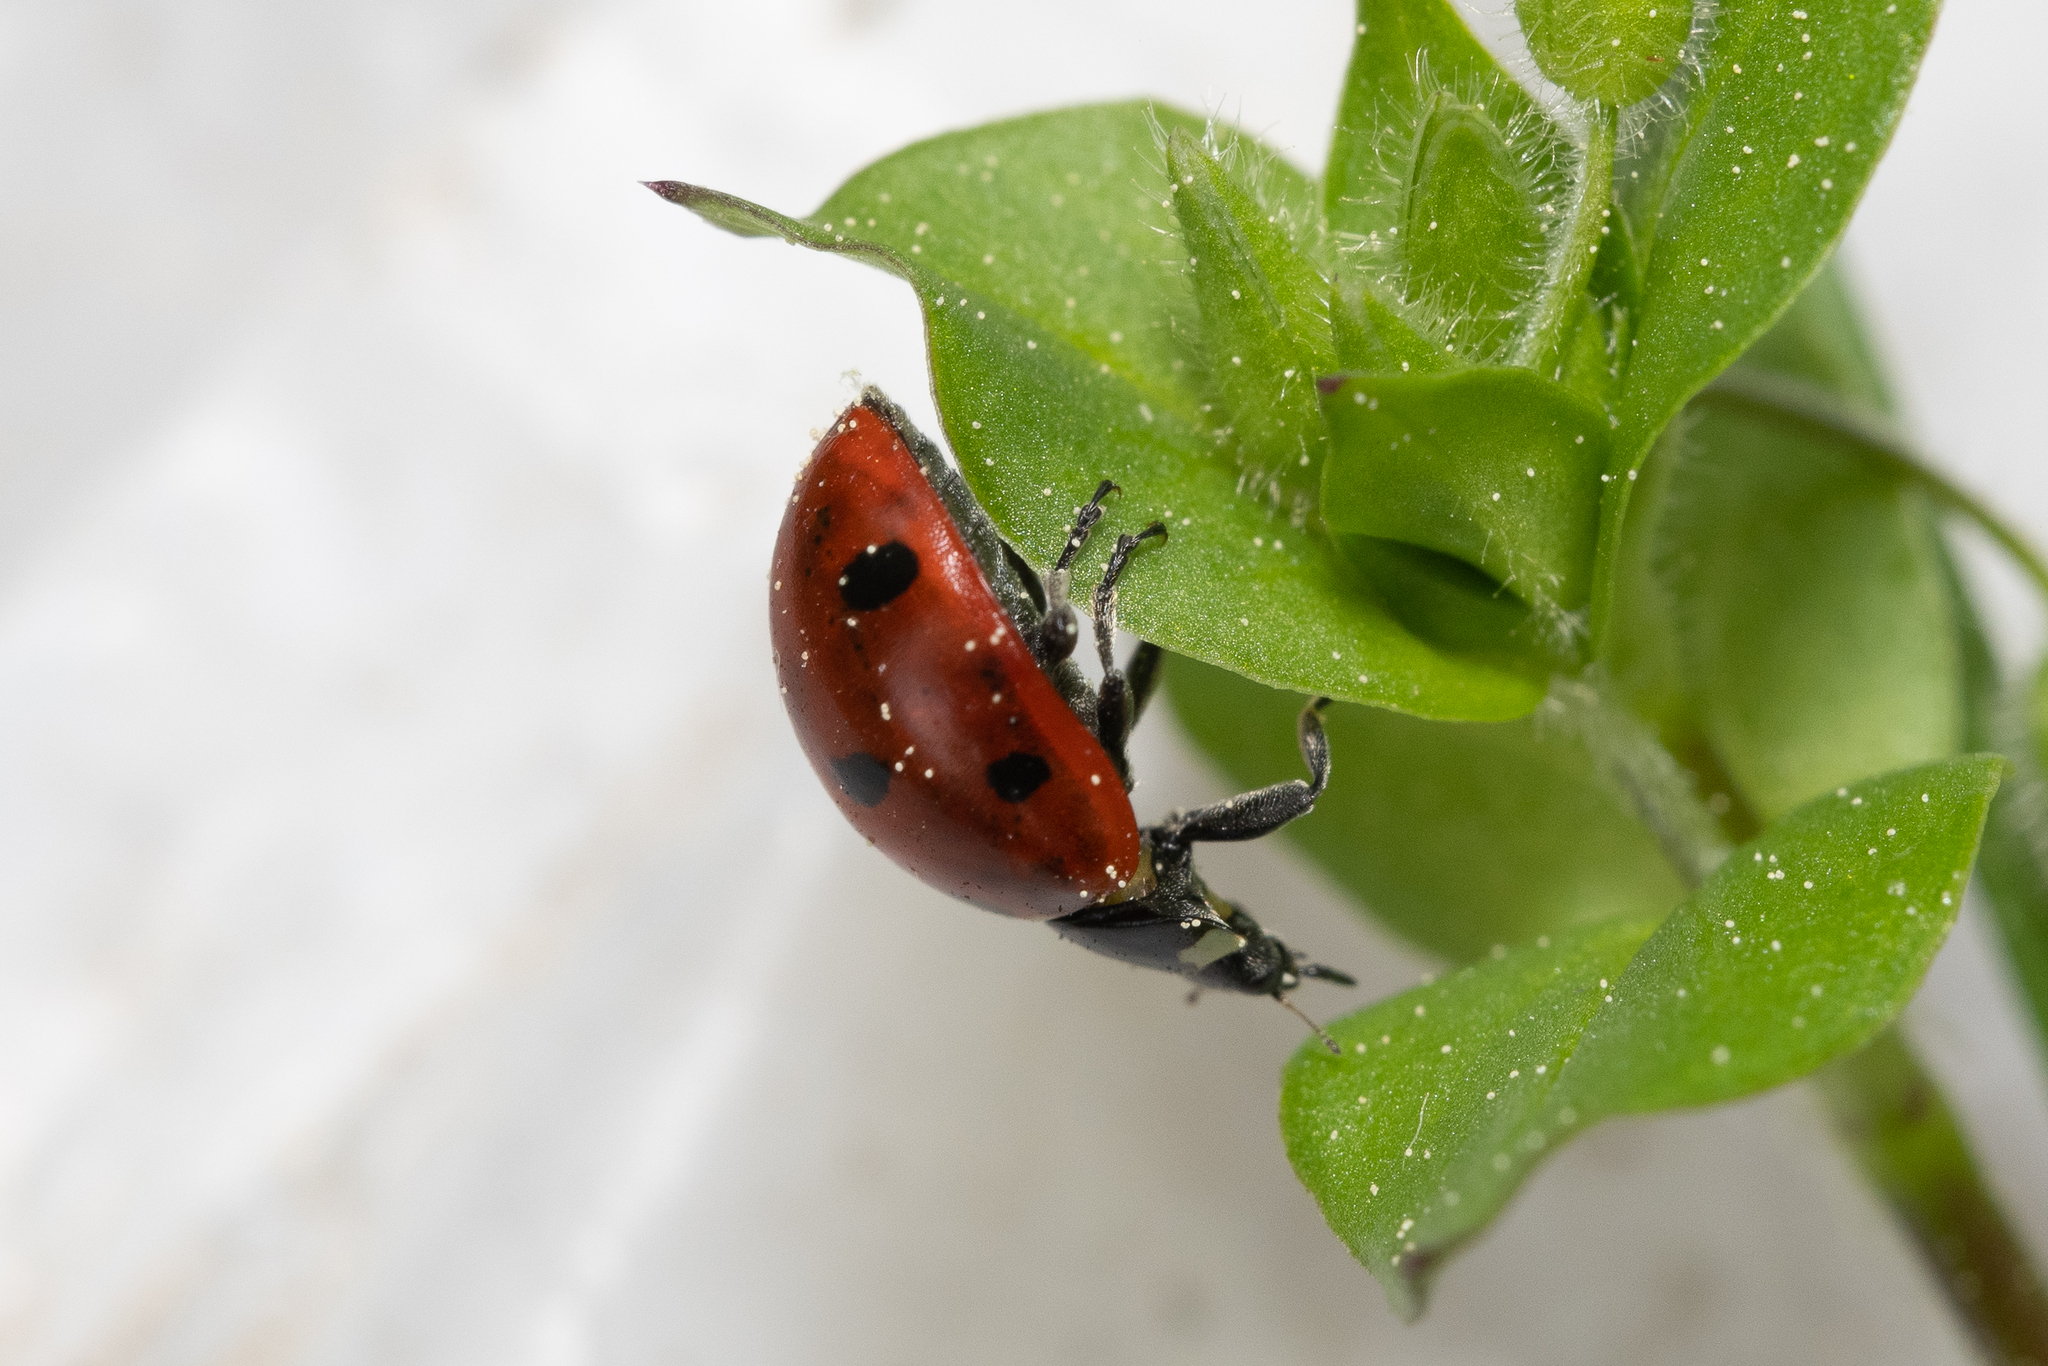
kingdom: Animalia
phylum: Arthropoda
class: Insecta
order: Coleoptera
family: Coccinellidae
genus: Coccinella
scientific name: Coccinella septempunctata
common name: Sevenspotted lady beetle
